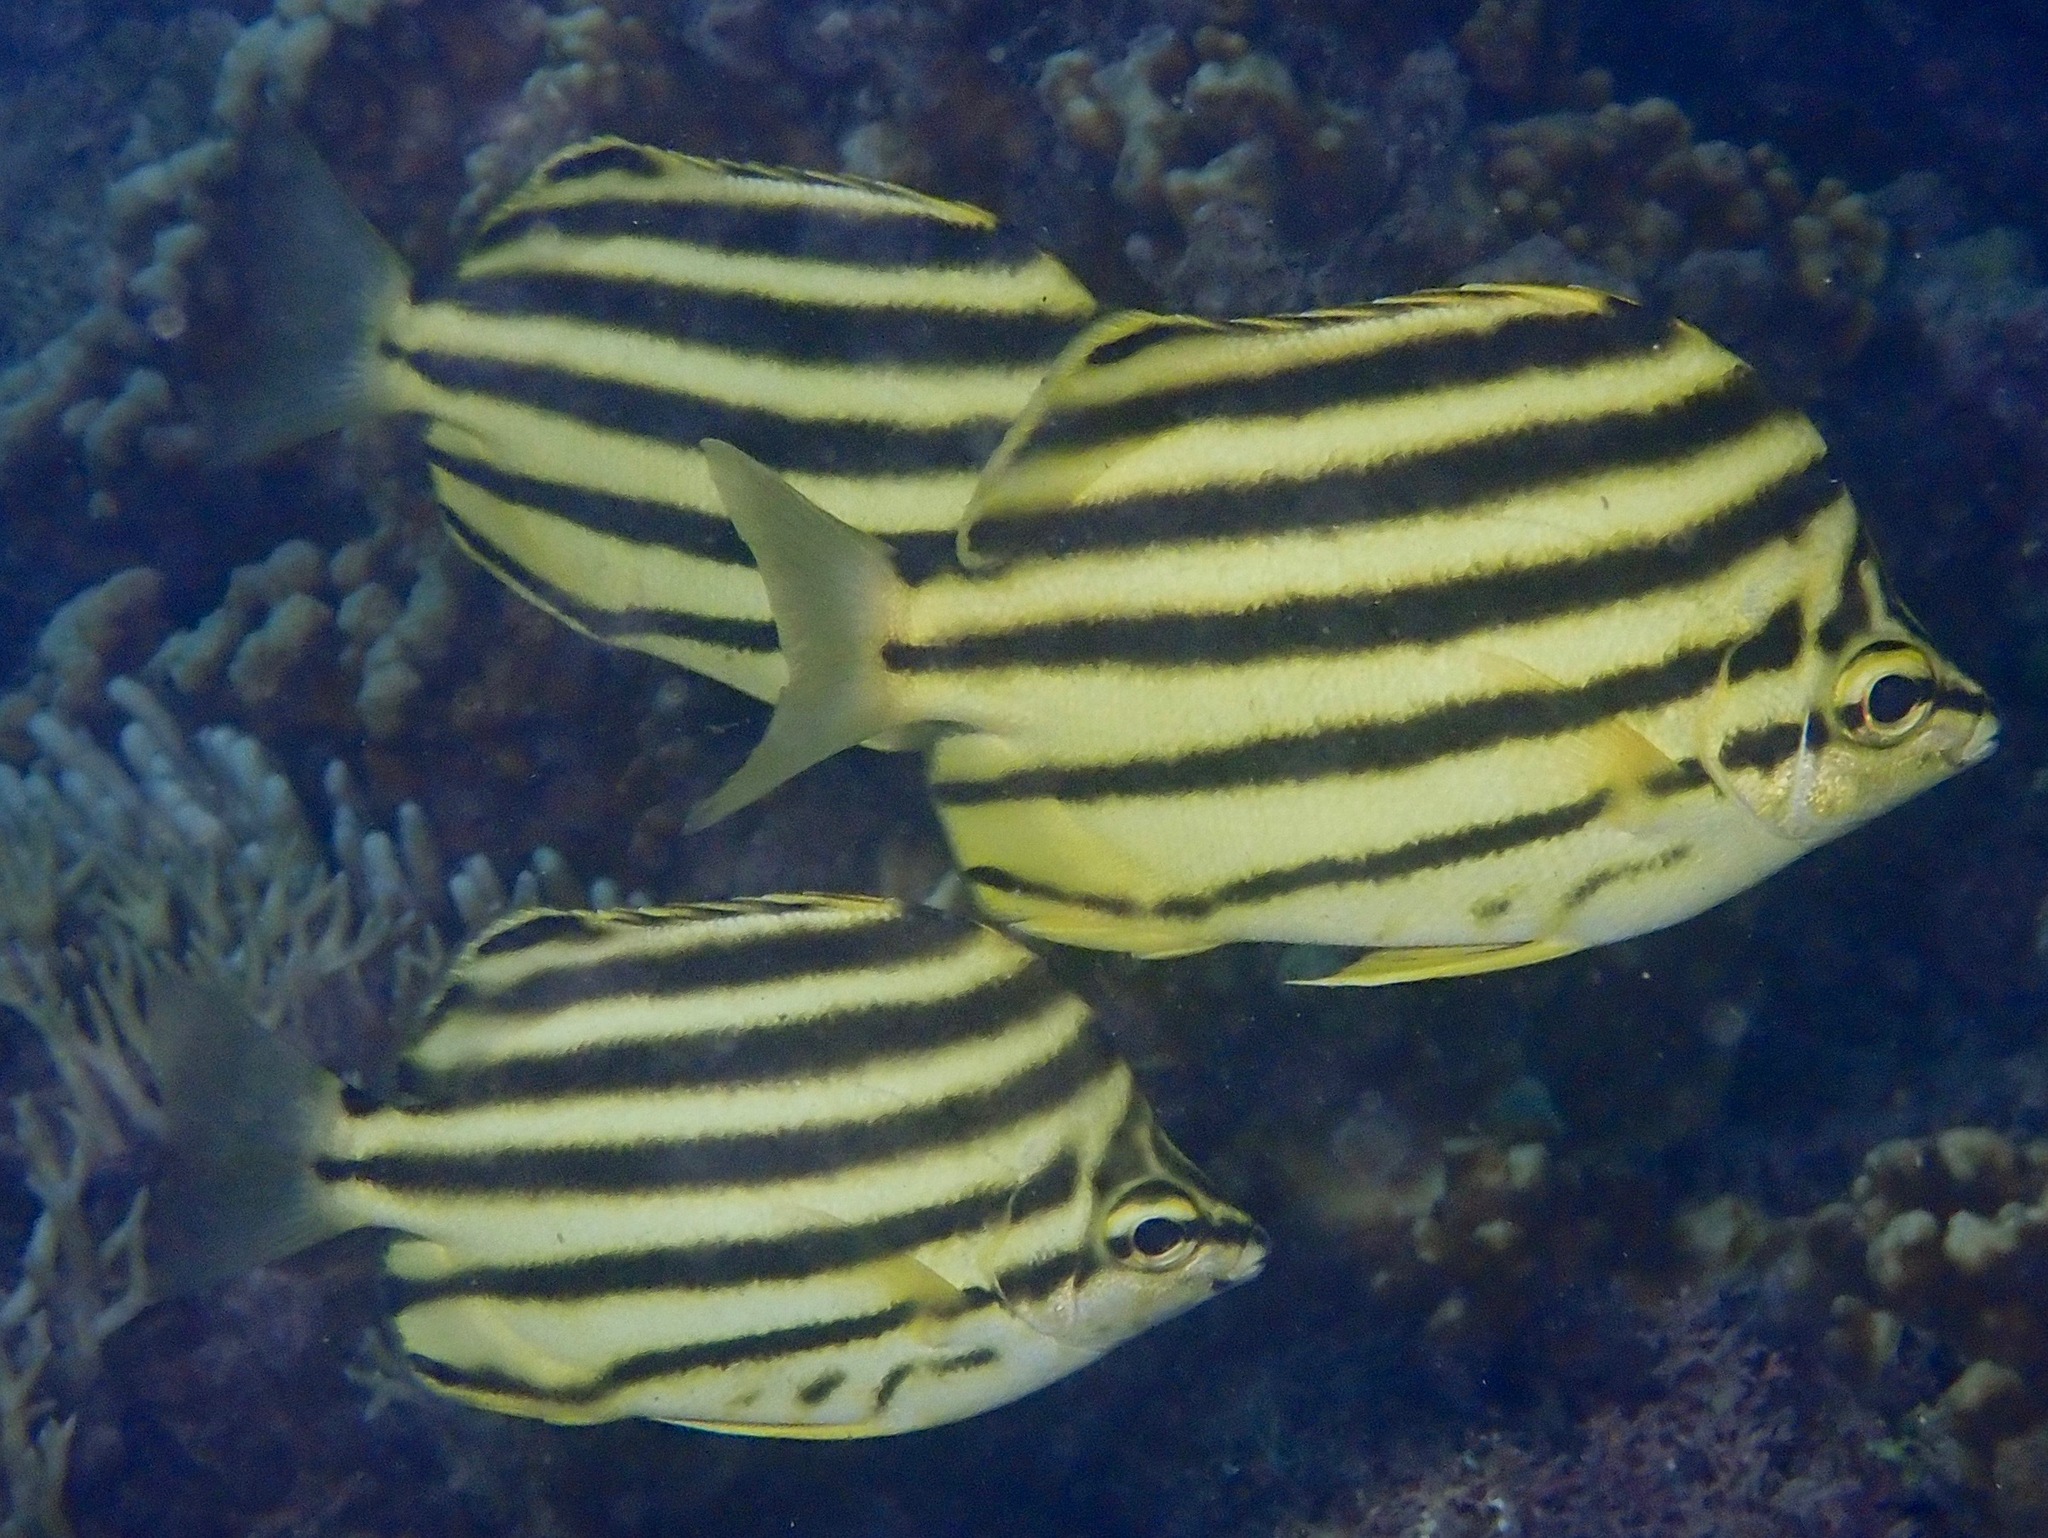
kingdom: Animalia
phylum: Chordata
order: Perciformes
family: Kyphosidae
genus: Microcanthus
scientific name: Microcanthus joyceae
